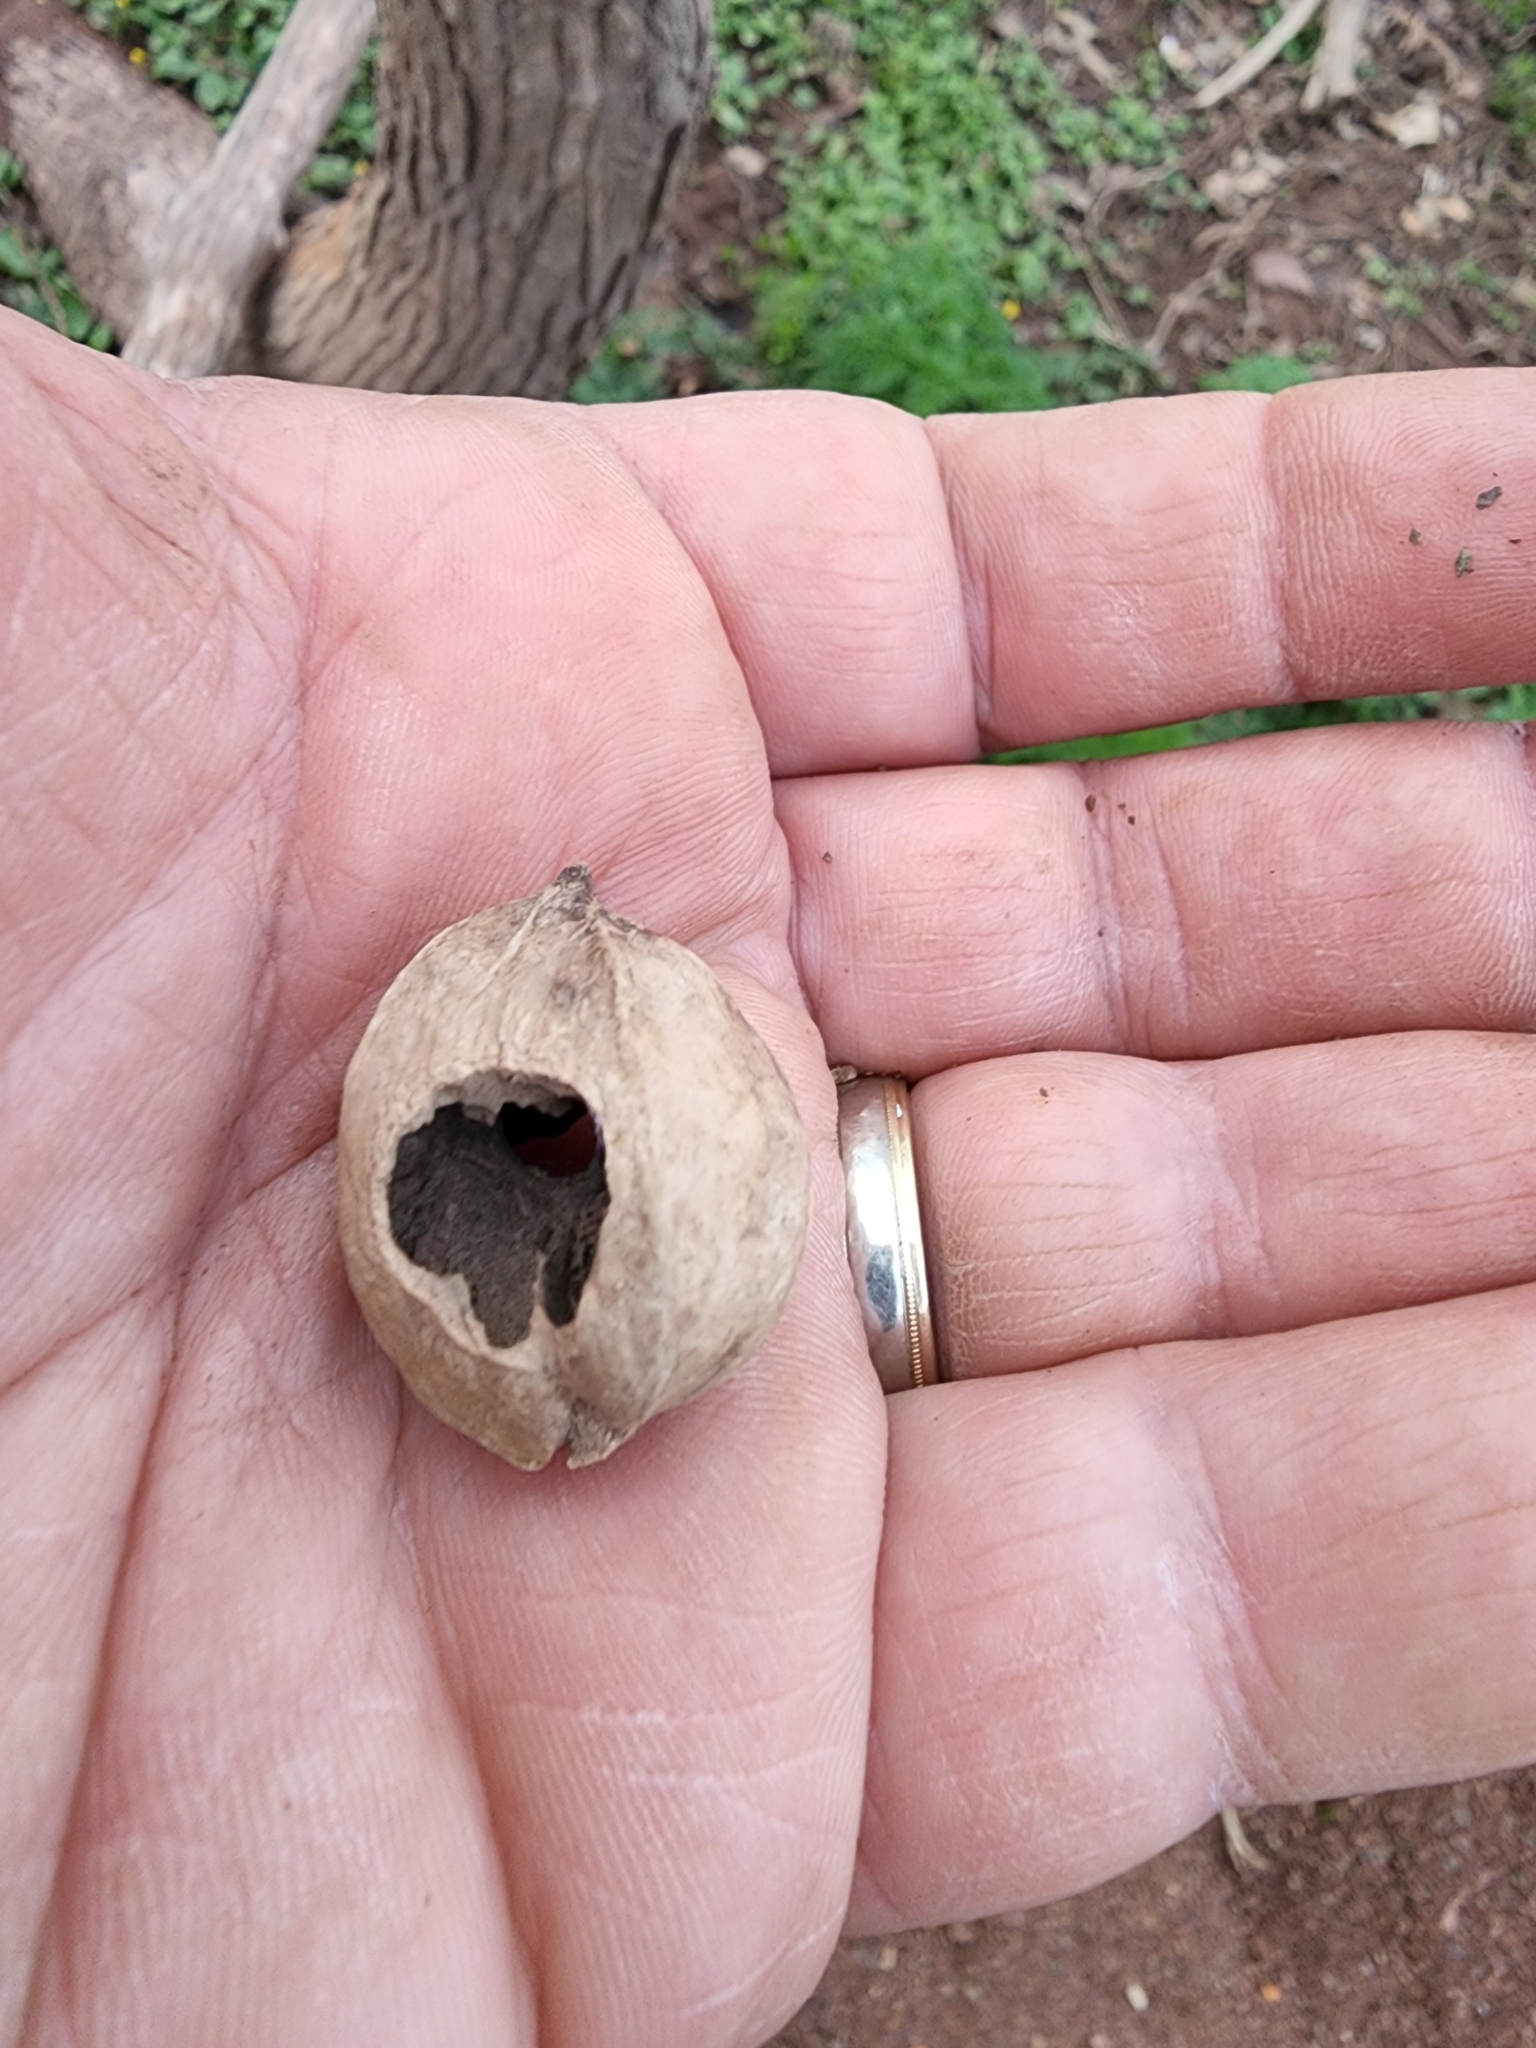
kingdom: Plantae
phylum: Tracheophyta
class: Magnoliopsida
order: Fagales
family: Juglandaceae
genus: Carya
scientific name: Carya ovata
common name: Shagbark hickory
